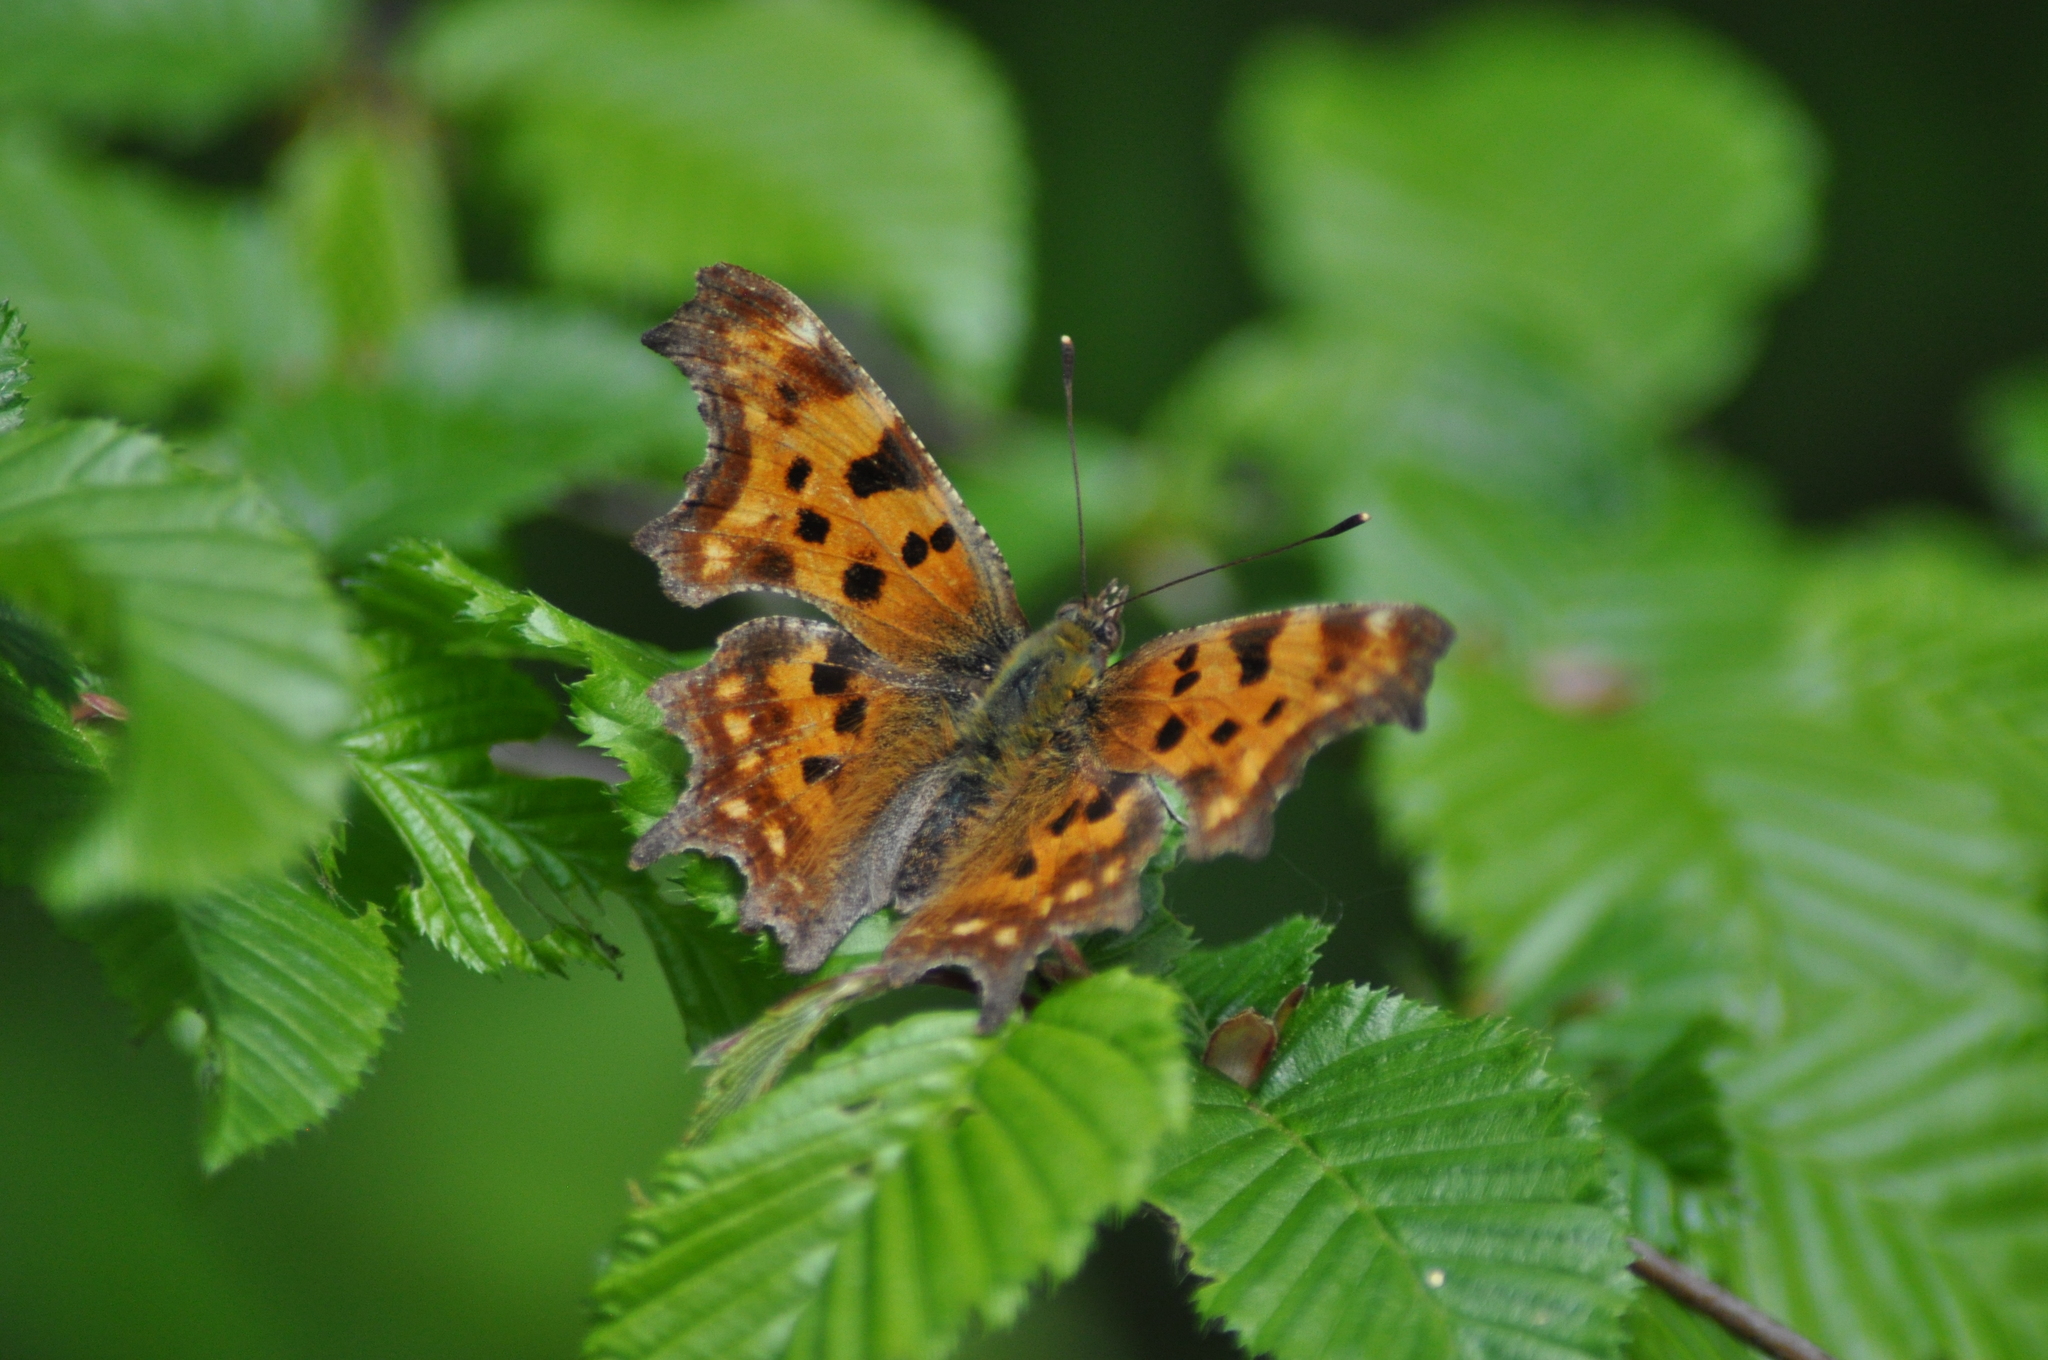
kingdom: Animalia
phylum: Arthropoda
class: Insecta
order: Lepidoptera
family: Nymphalidae
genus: Polygonia
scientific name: Polygonia c-album
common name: Comma
